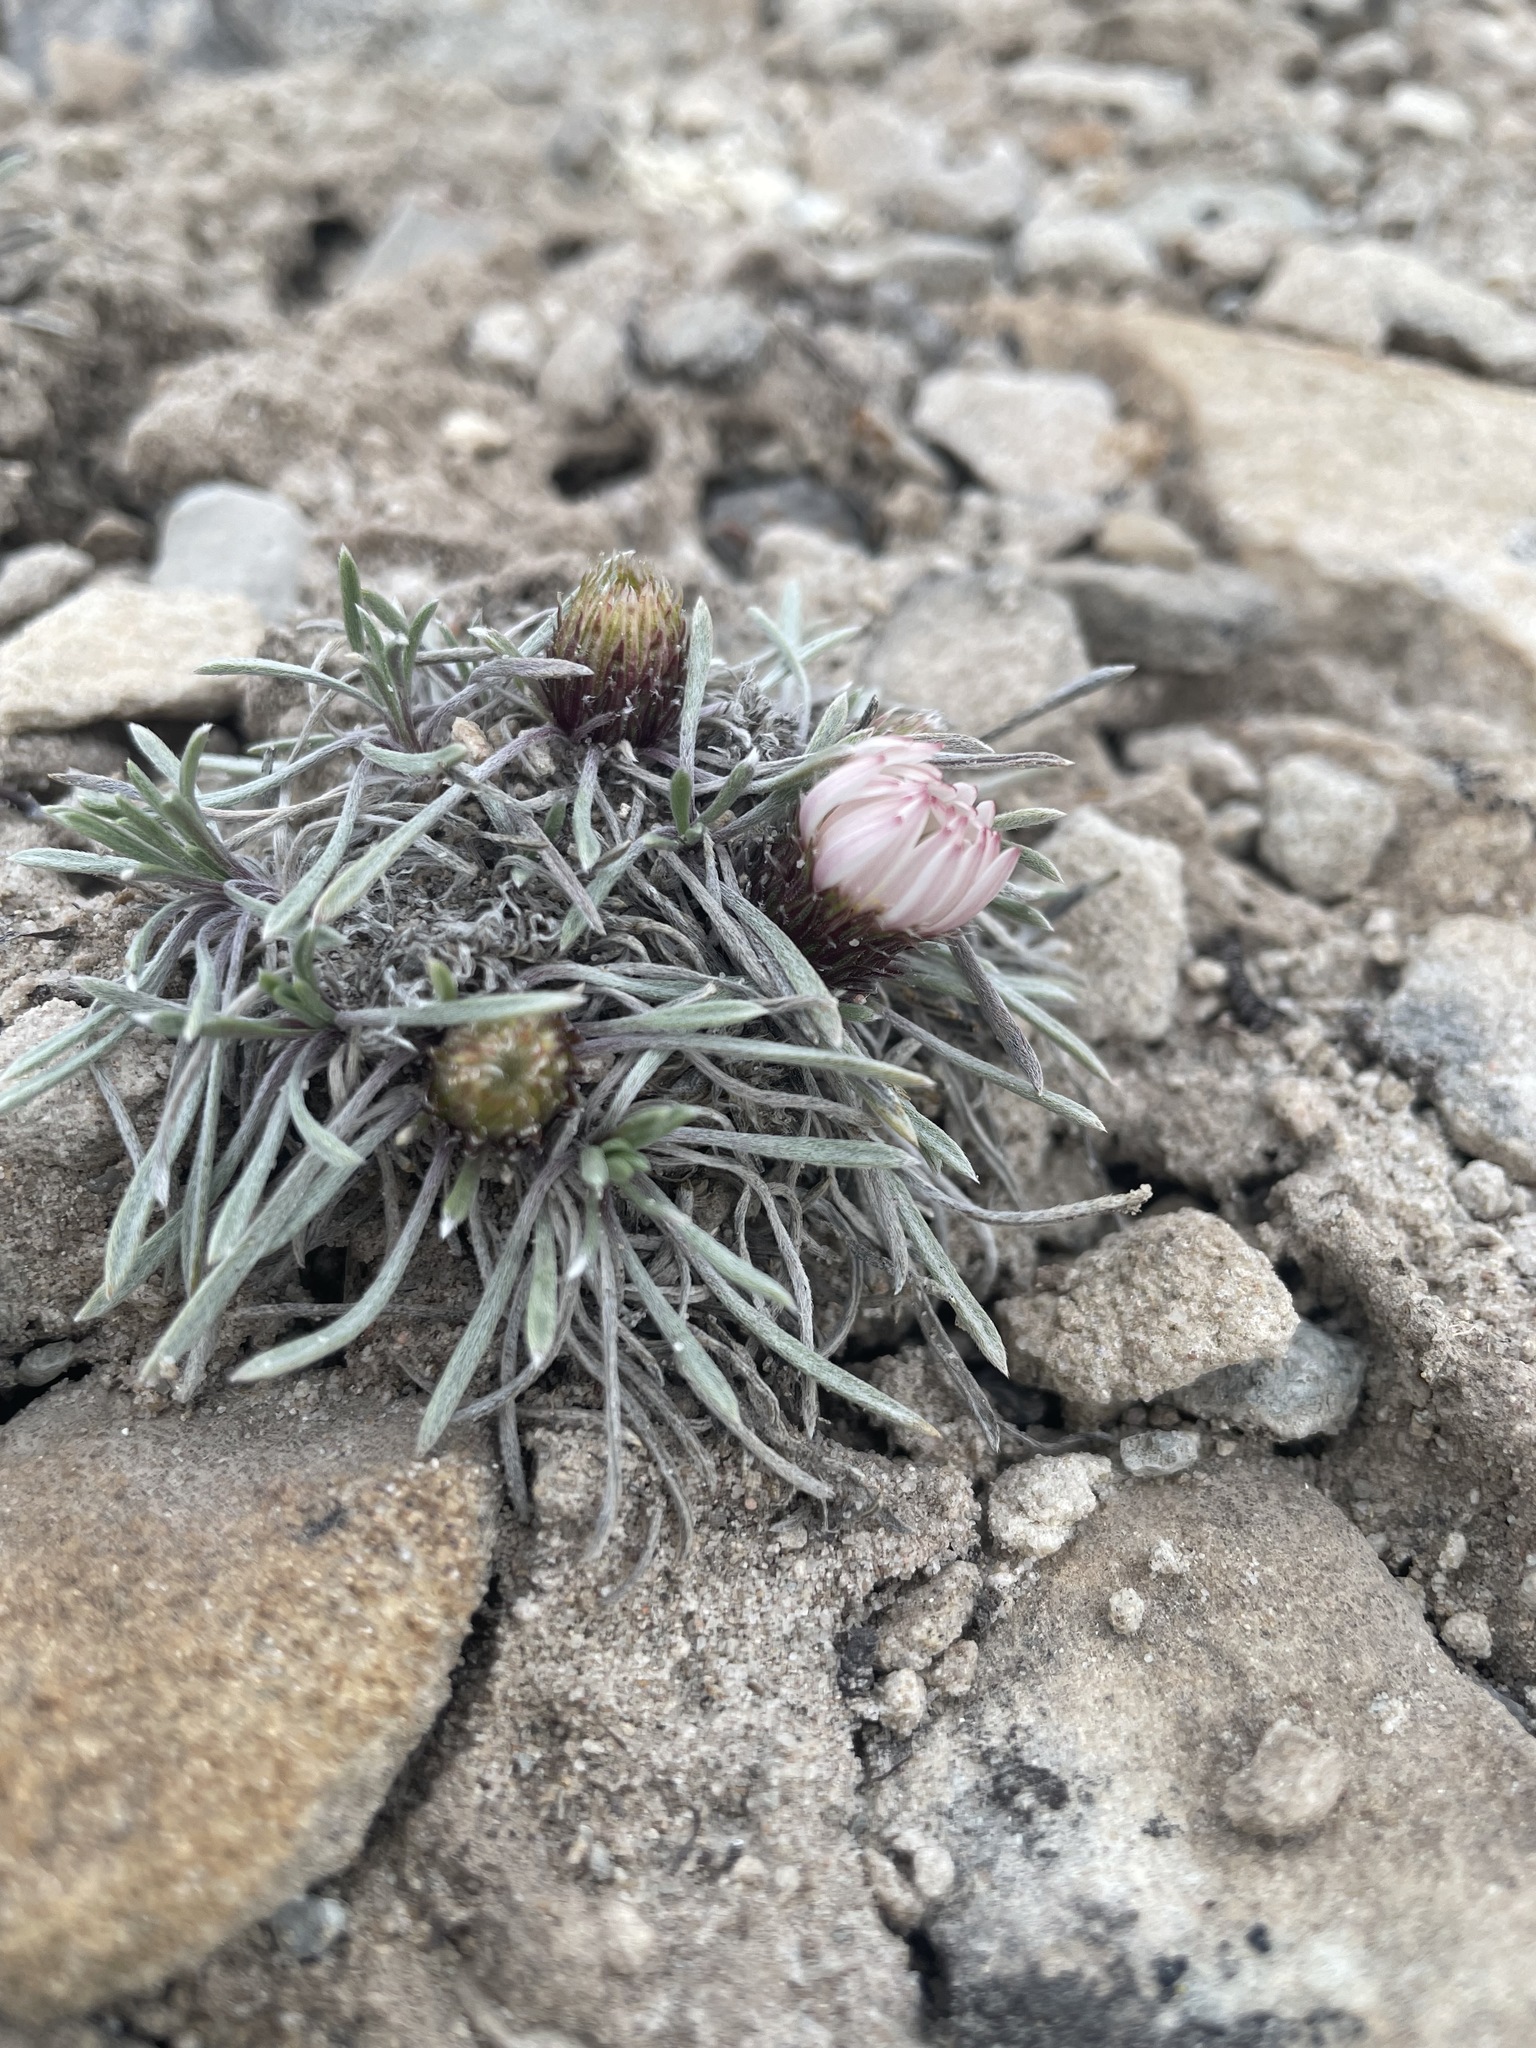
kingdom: Plantae
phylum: Tracheophyta
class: Magnoliopsida
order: Asterales
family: Asteraceae
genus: Townsendia
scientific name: Townsendia hookeri
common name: Hooker's townsend daisy
